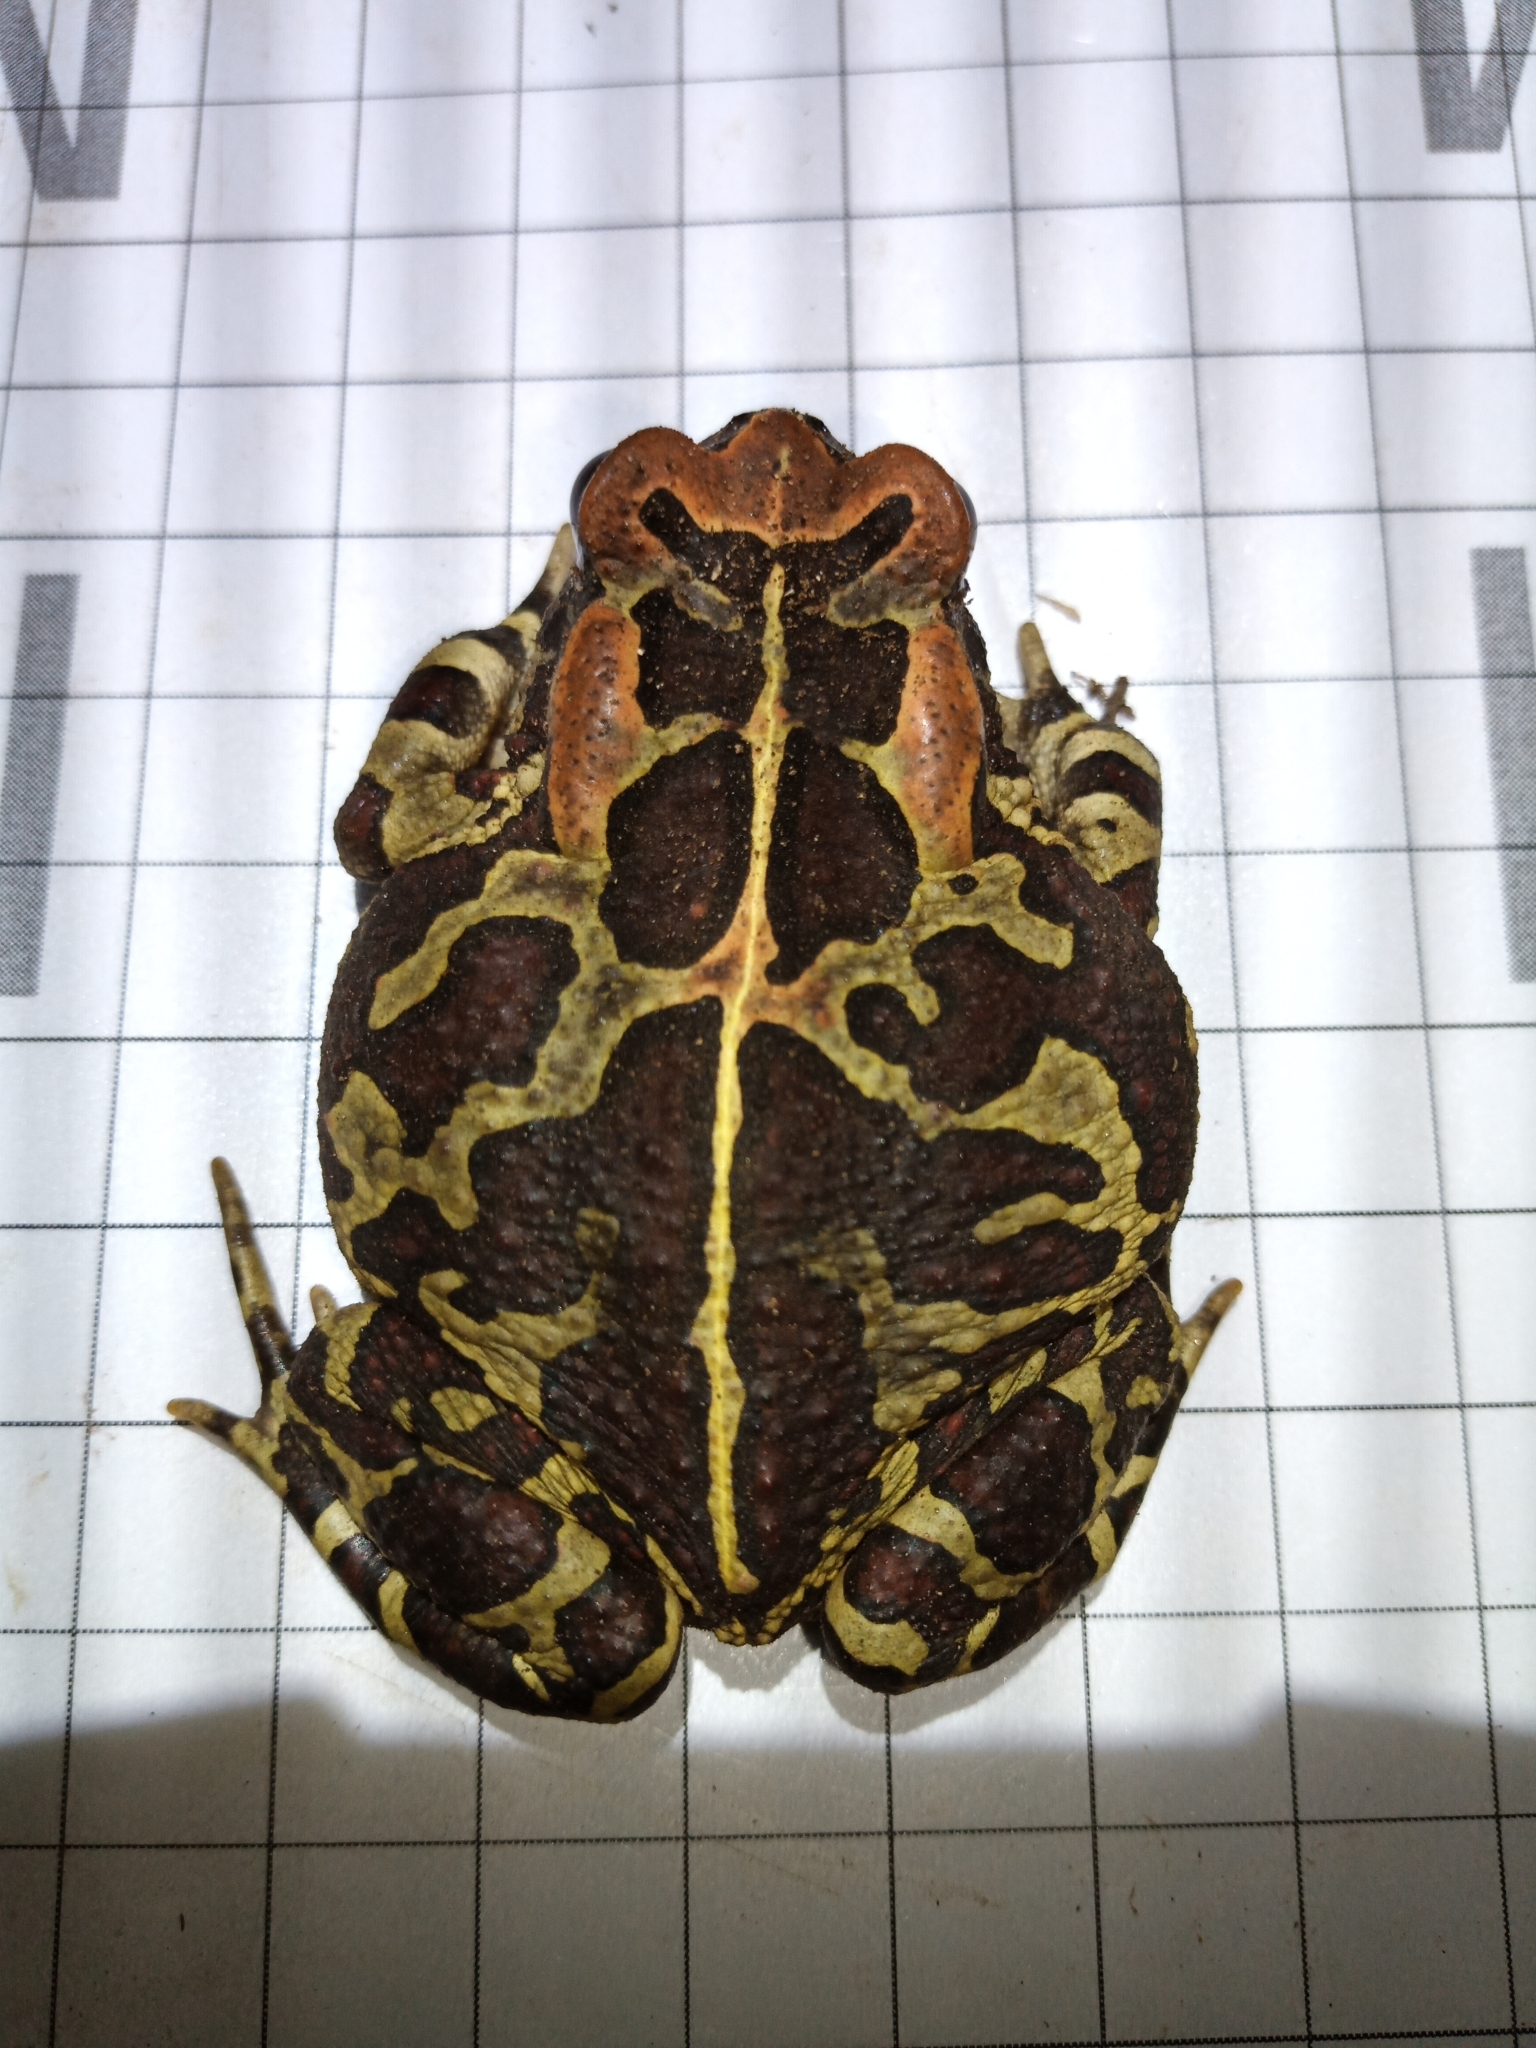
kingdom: Animalia
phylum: Chordata
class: Amphibia
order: Anura
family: Bufonidae
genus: Sclerophrys
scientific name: Sclerophrys pantherina
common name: Panther toad
